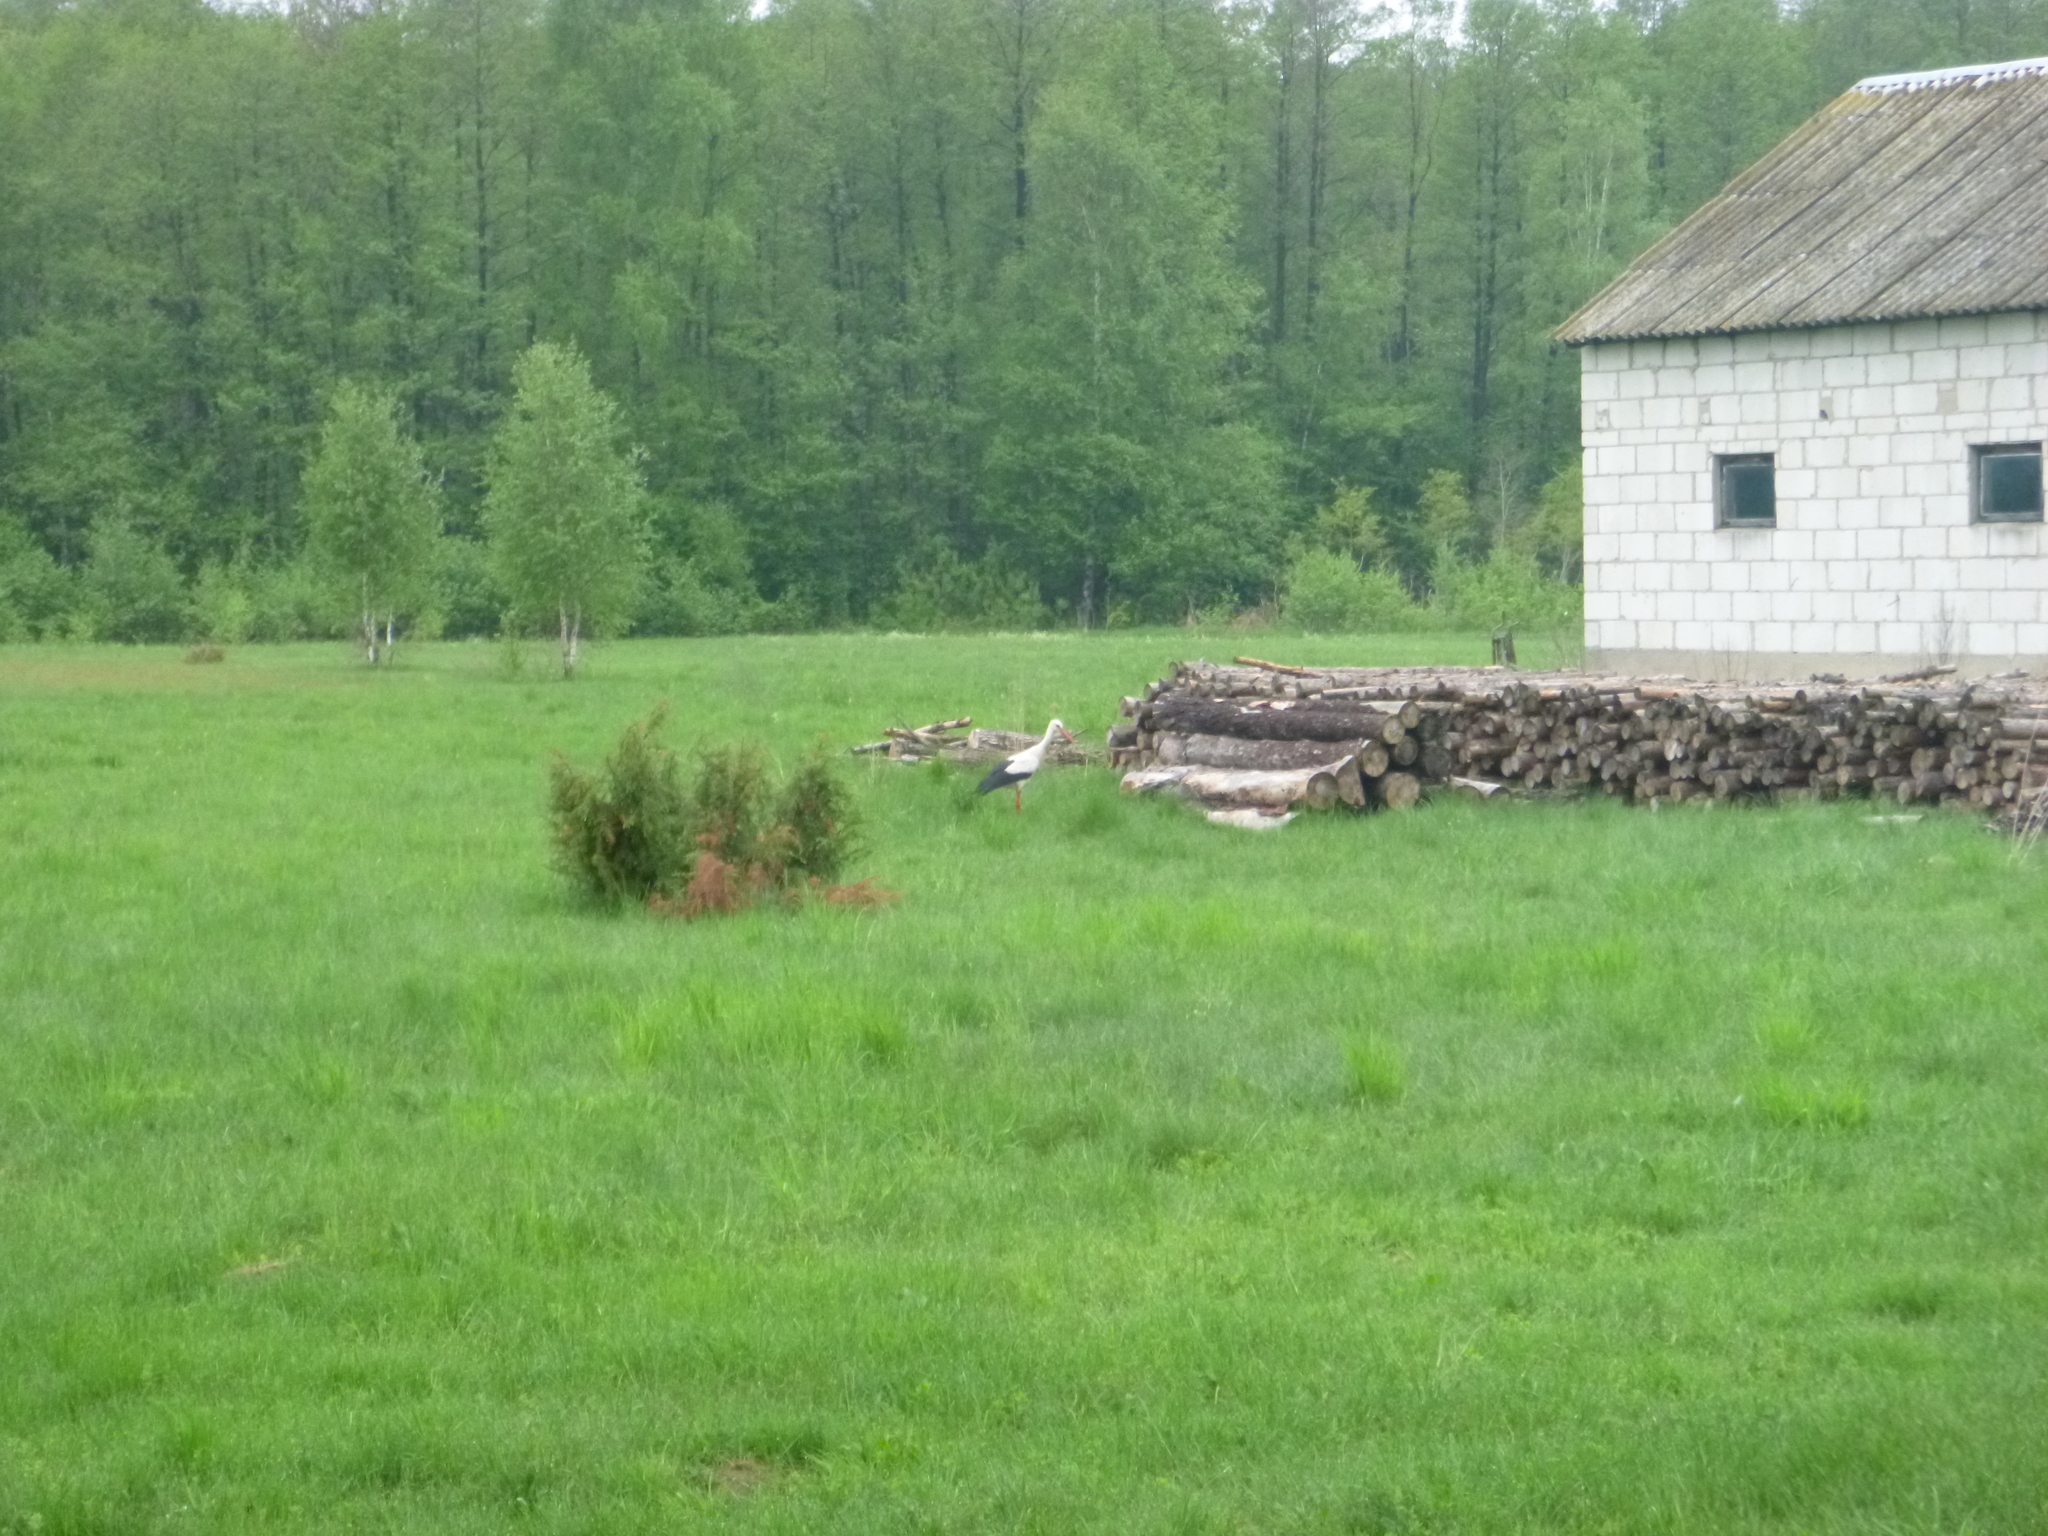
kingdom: Animalia
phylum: Chordata
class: Aves
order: Ciconiiformes
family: Ciconiidae
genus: Ciconia
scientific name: Ciconia ciconia
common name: White stork
